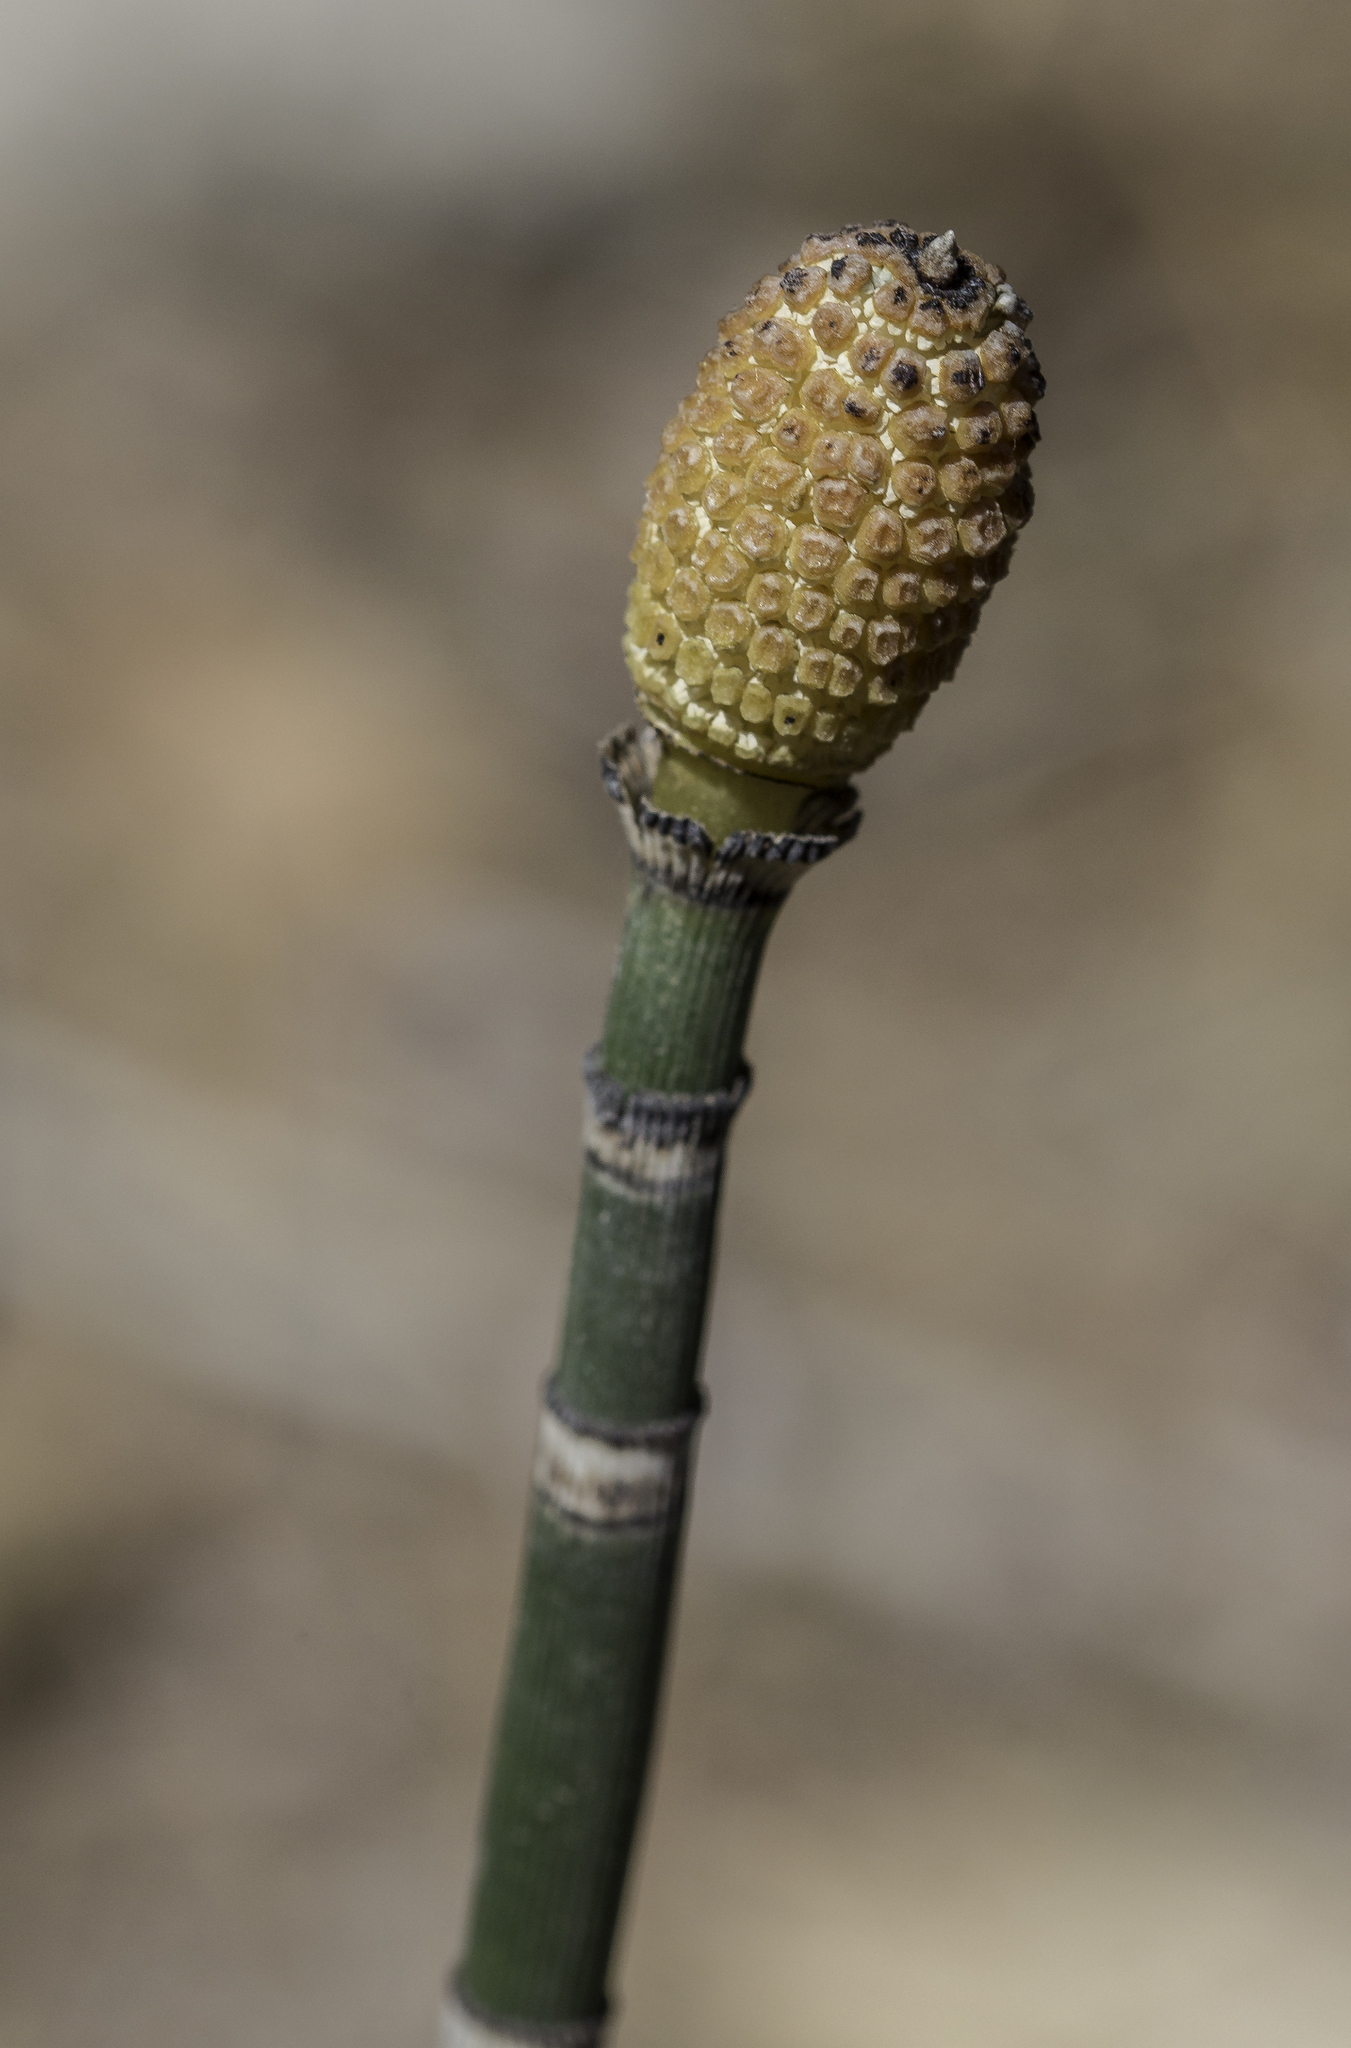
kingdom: Plantae
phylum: Tracheophyta
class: Polypodiopsida
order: Equisetales
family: Equisetaceae
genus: Equisetum
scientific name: Equisetum hyemale
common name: Rough horsetail
